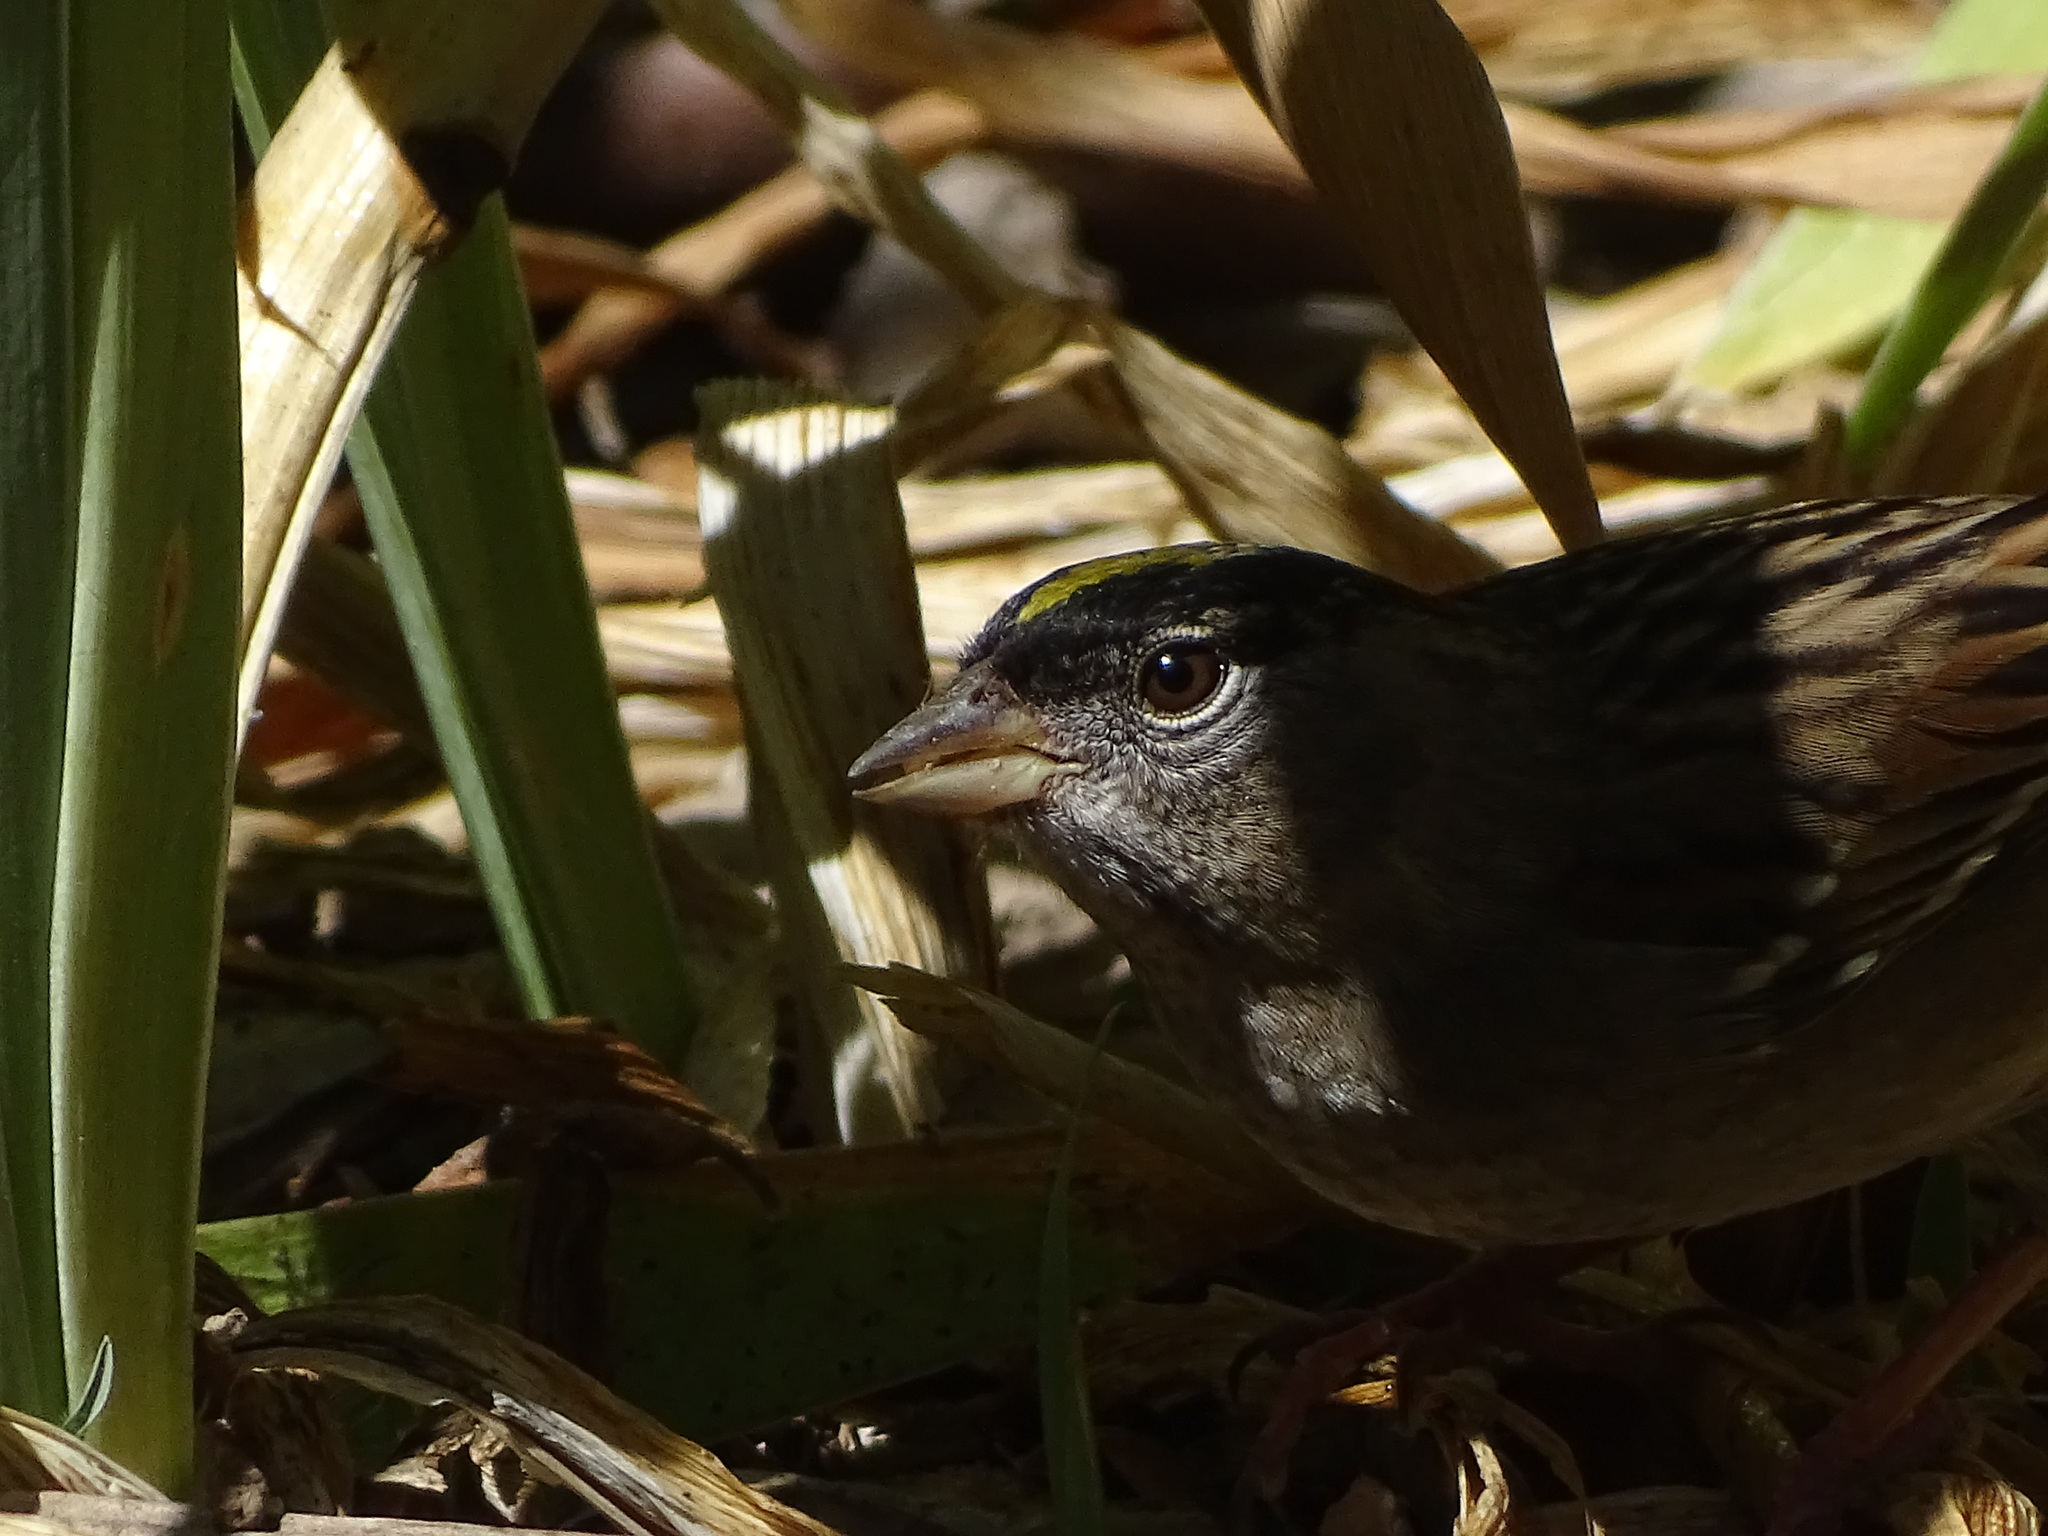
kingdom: Animalia
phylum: Chordata
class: Aves
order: Passeriformes
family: Passerellidae
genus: Zonotrichia
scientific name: Zonotrichia atricapilla
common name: Golden-crowned sparrow
